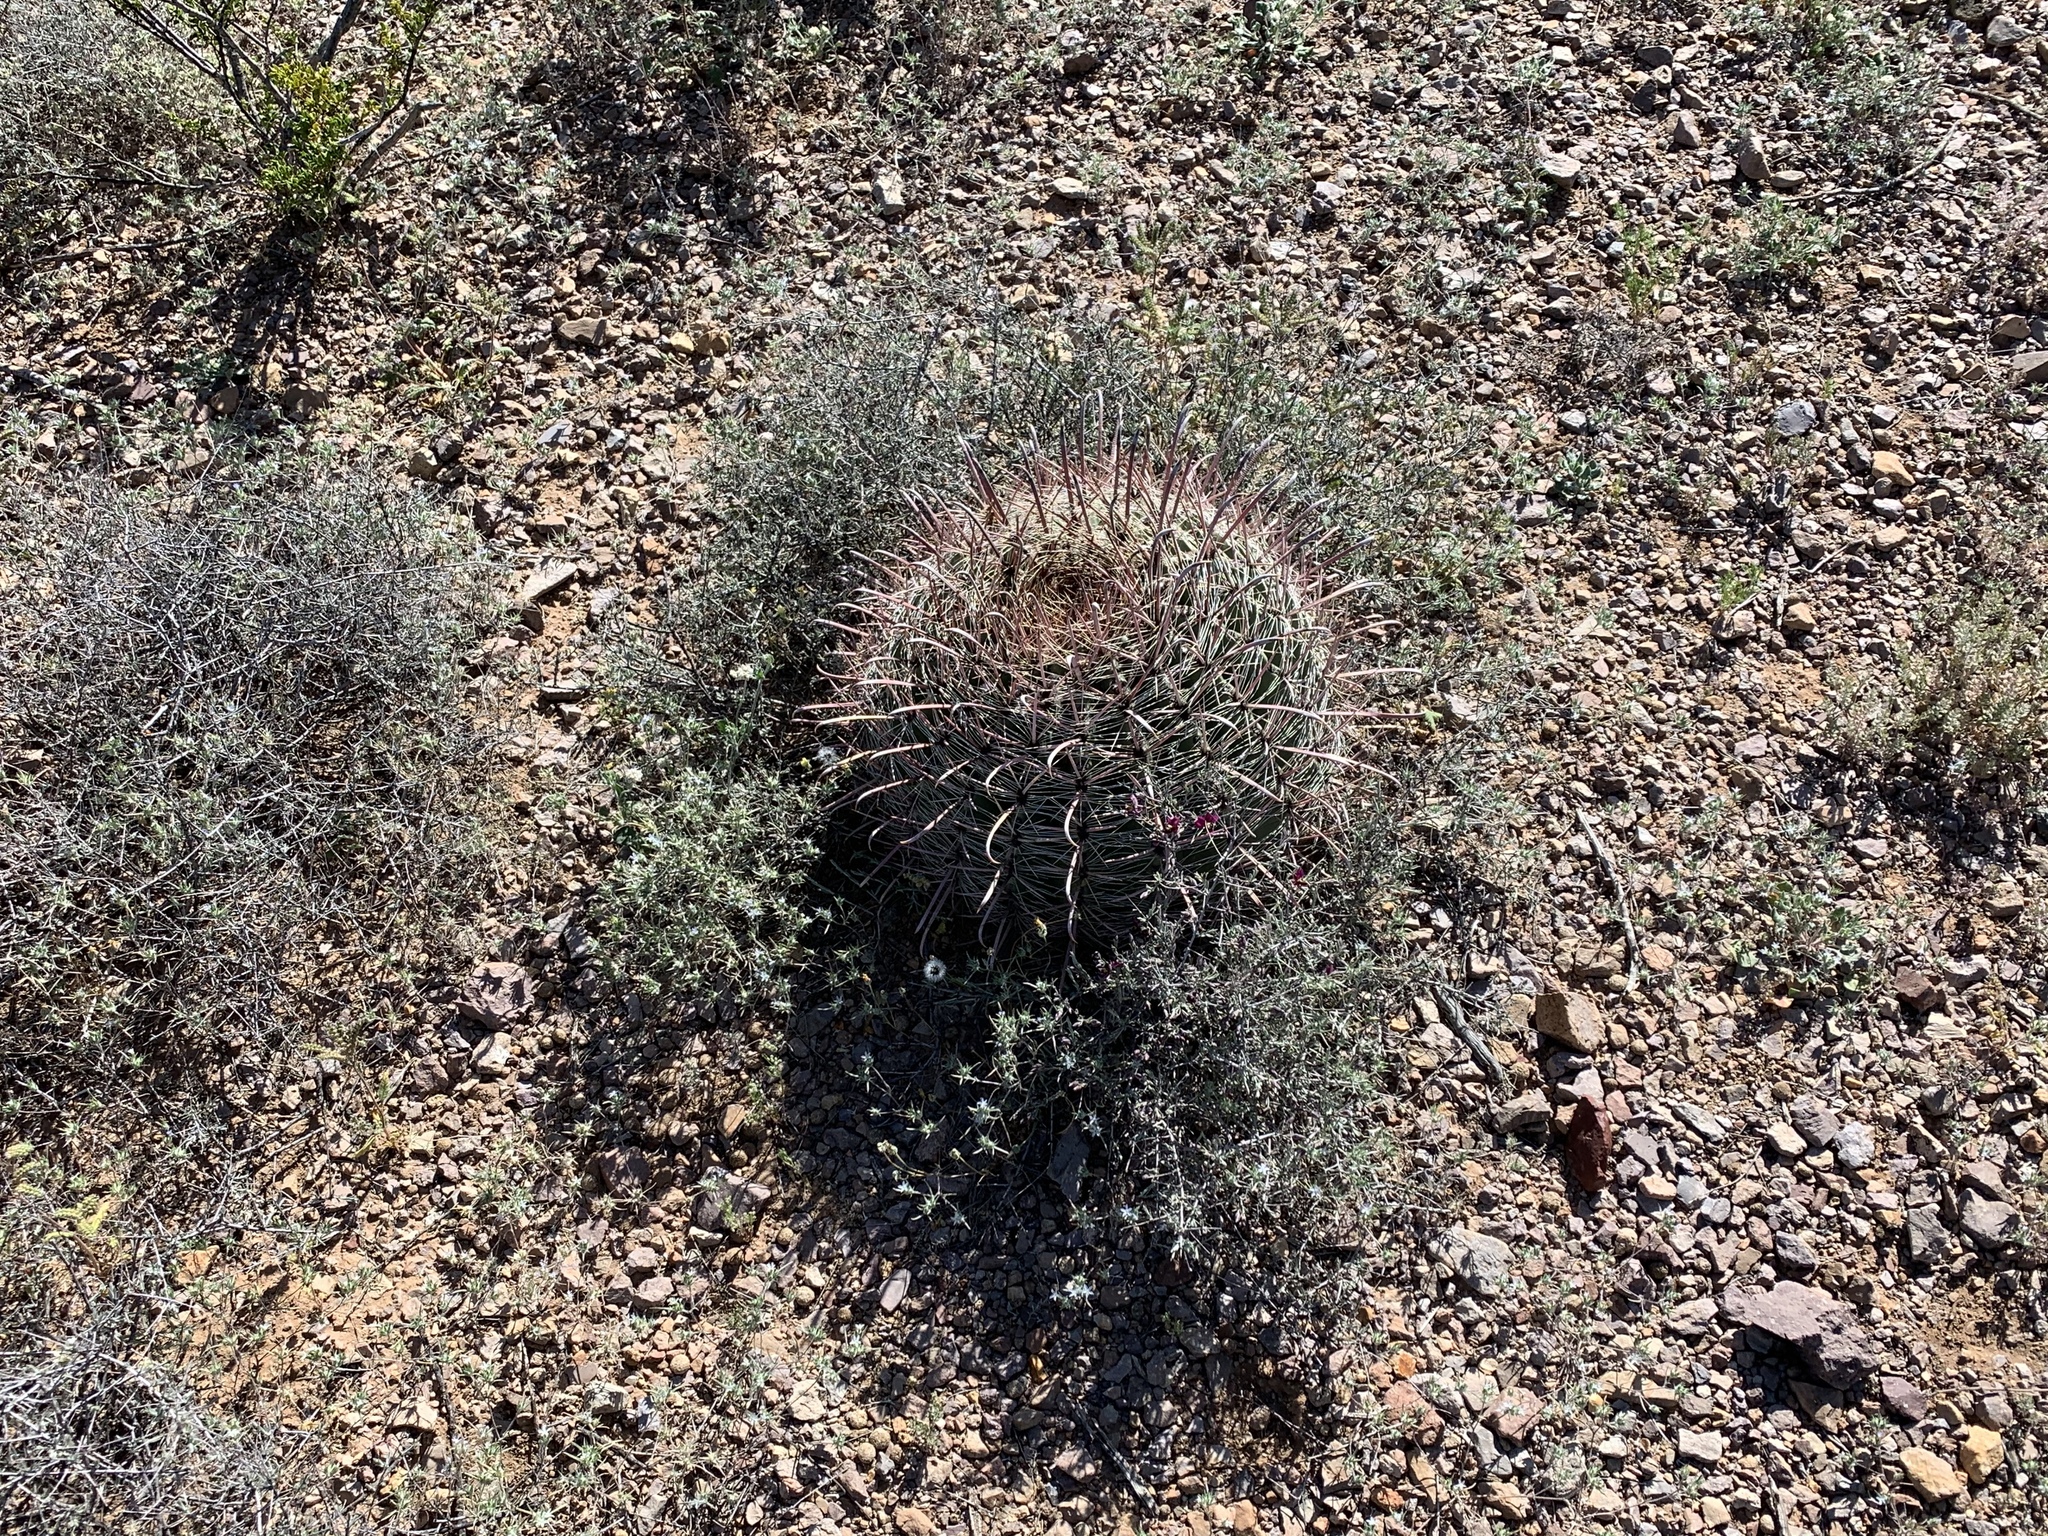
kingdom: Plantae
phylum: Tracheophyta
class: Magnoliopsida
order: Caryophyllales
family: Cactaceae
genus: Ferocactus
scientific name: Ferocactus wislizeni
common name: Candy barrel cactus
